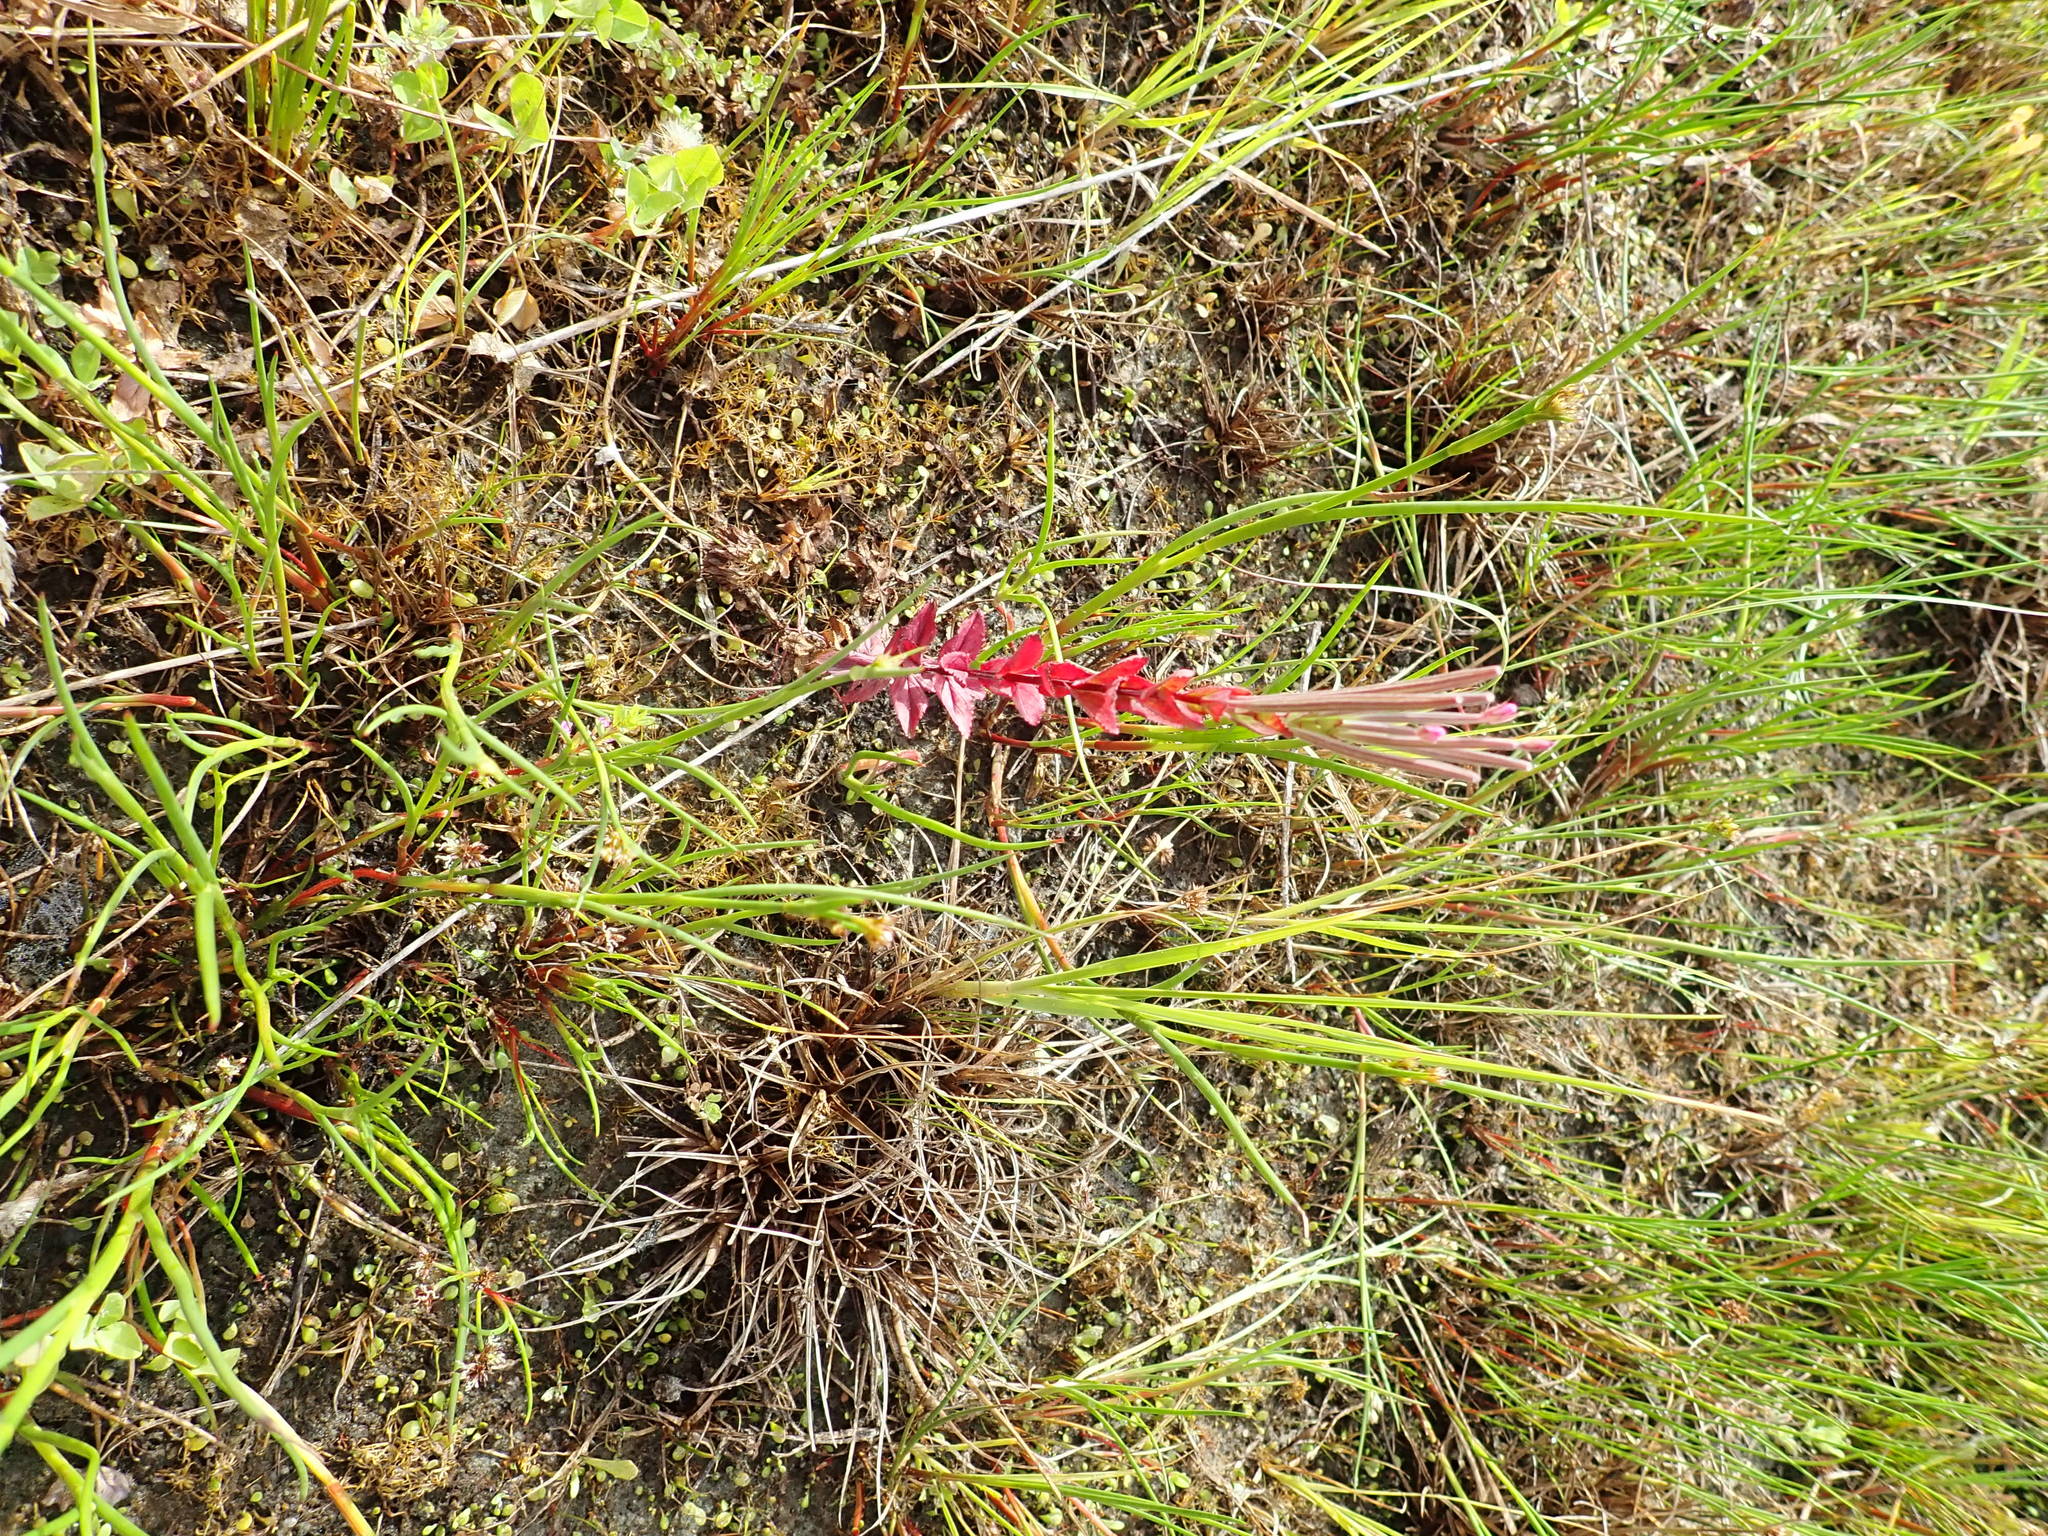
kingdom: Plantae
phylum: Tracheophyta
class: Magnoliopsida
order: Myrtales
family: Onagraceae
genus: Epilobium
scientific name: Epilobium billardiereanum
